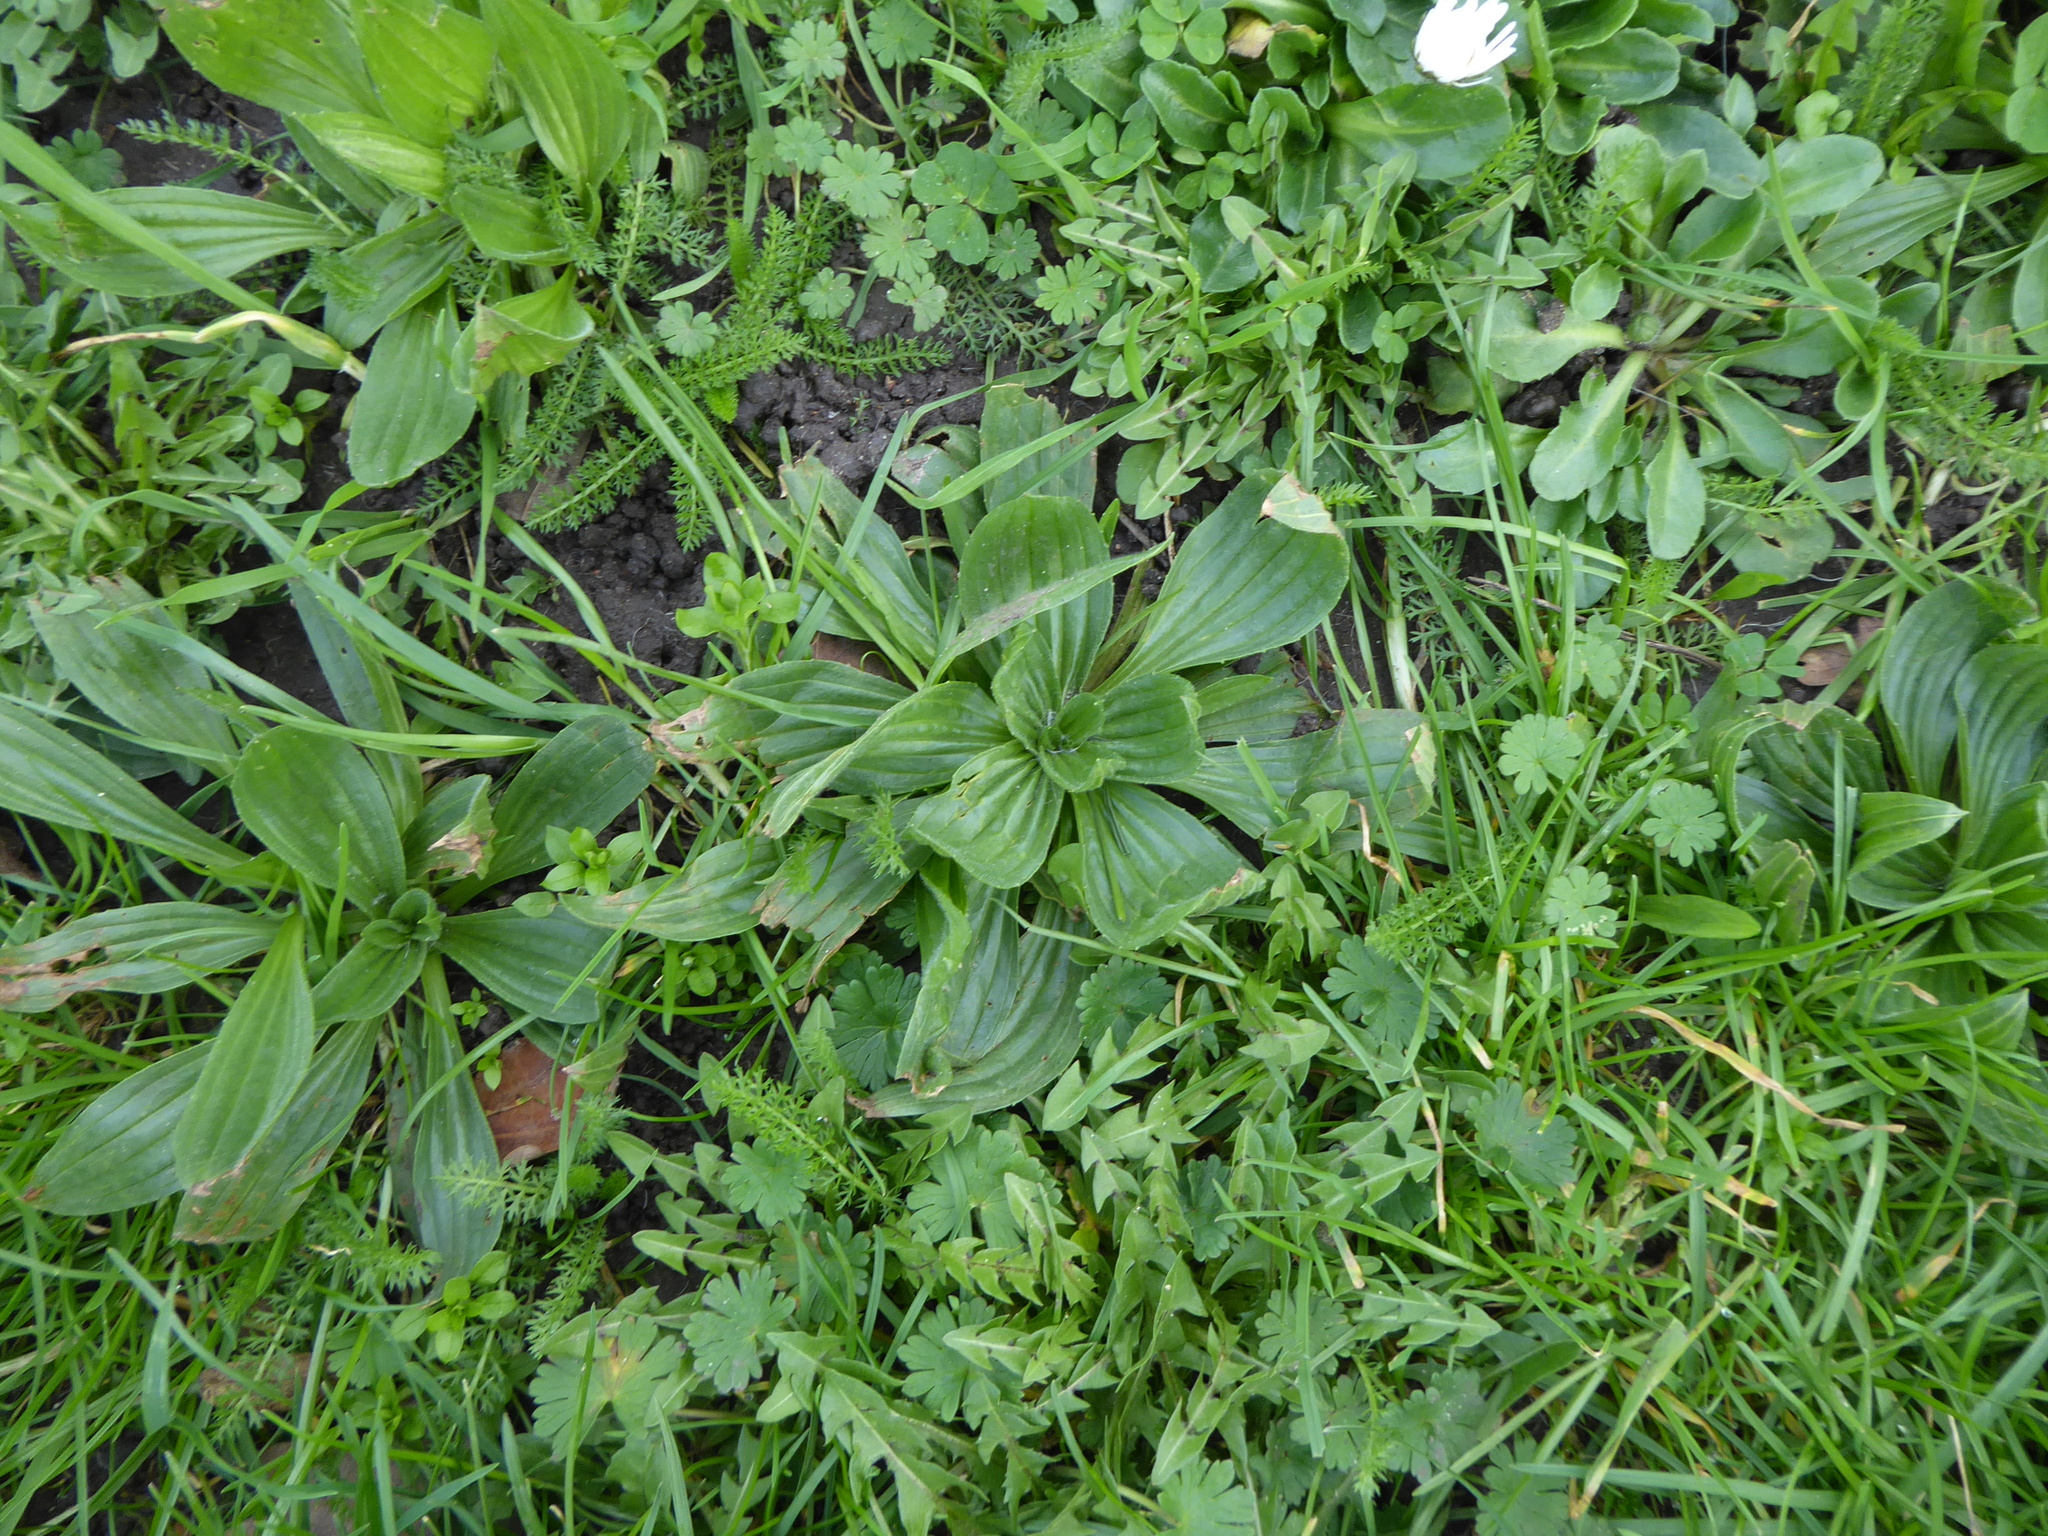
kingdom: Plantae
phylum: Tracheophyta
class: Magnoliopsida
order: Lamiales
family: Plantaginaceae
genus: Plantago
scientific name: Plantago lanceolata
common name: Ribwort plantain
